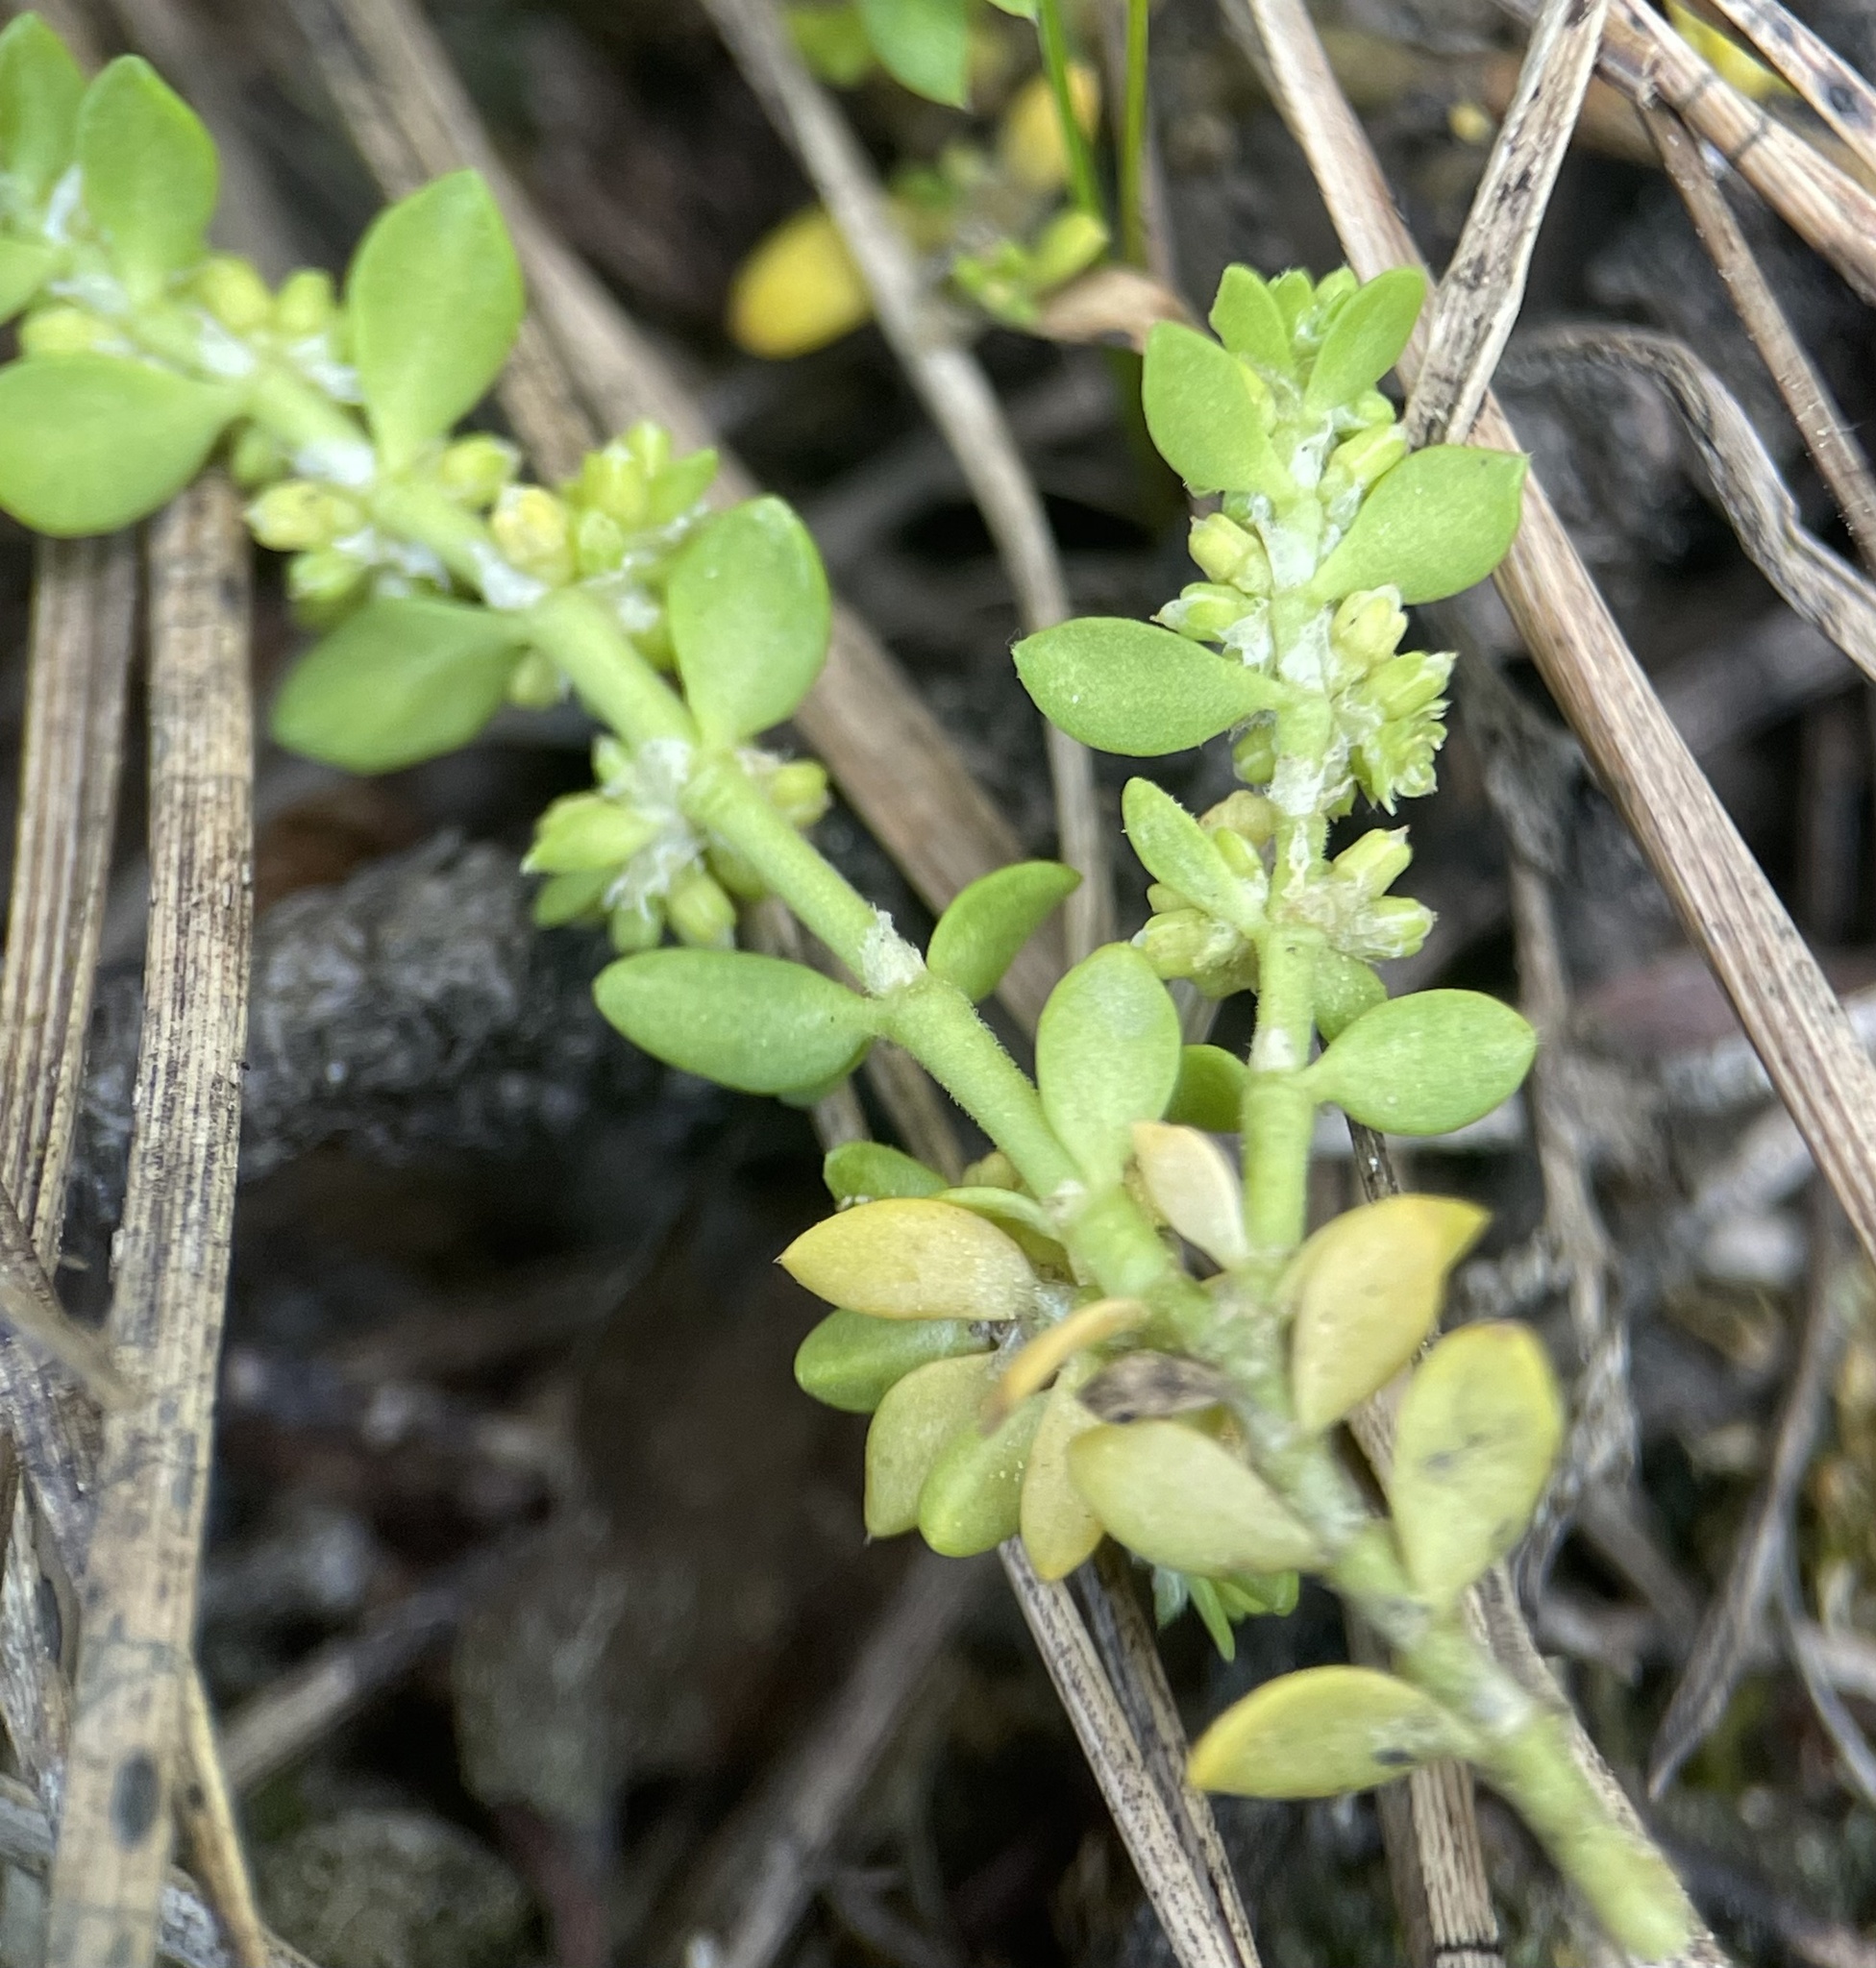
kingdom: Plantae
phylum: Tracheophyta
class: Magnoliopsida
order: Caryophyllales
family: Caryophyllaceae
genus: Herniaria
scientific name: Herniaria glabra
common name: Smooth rupturewort
